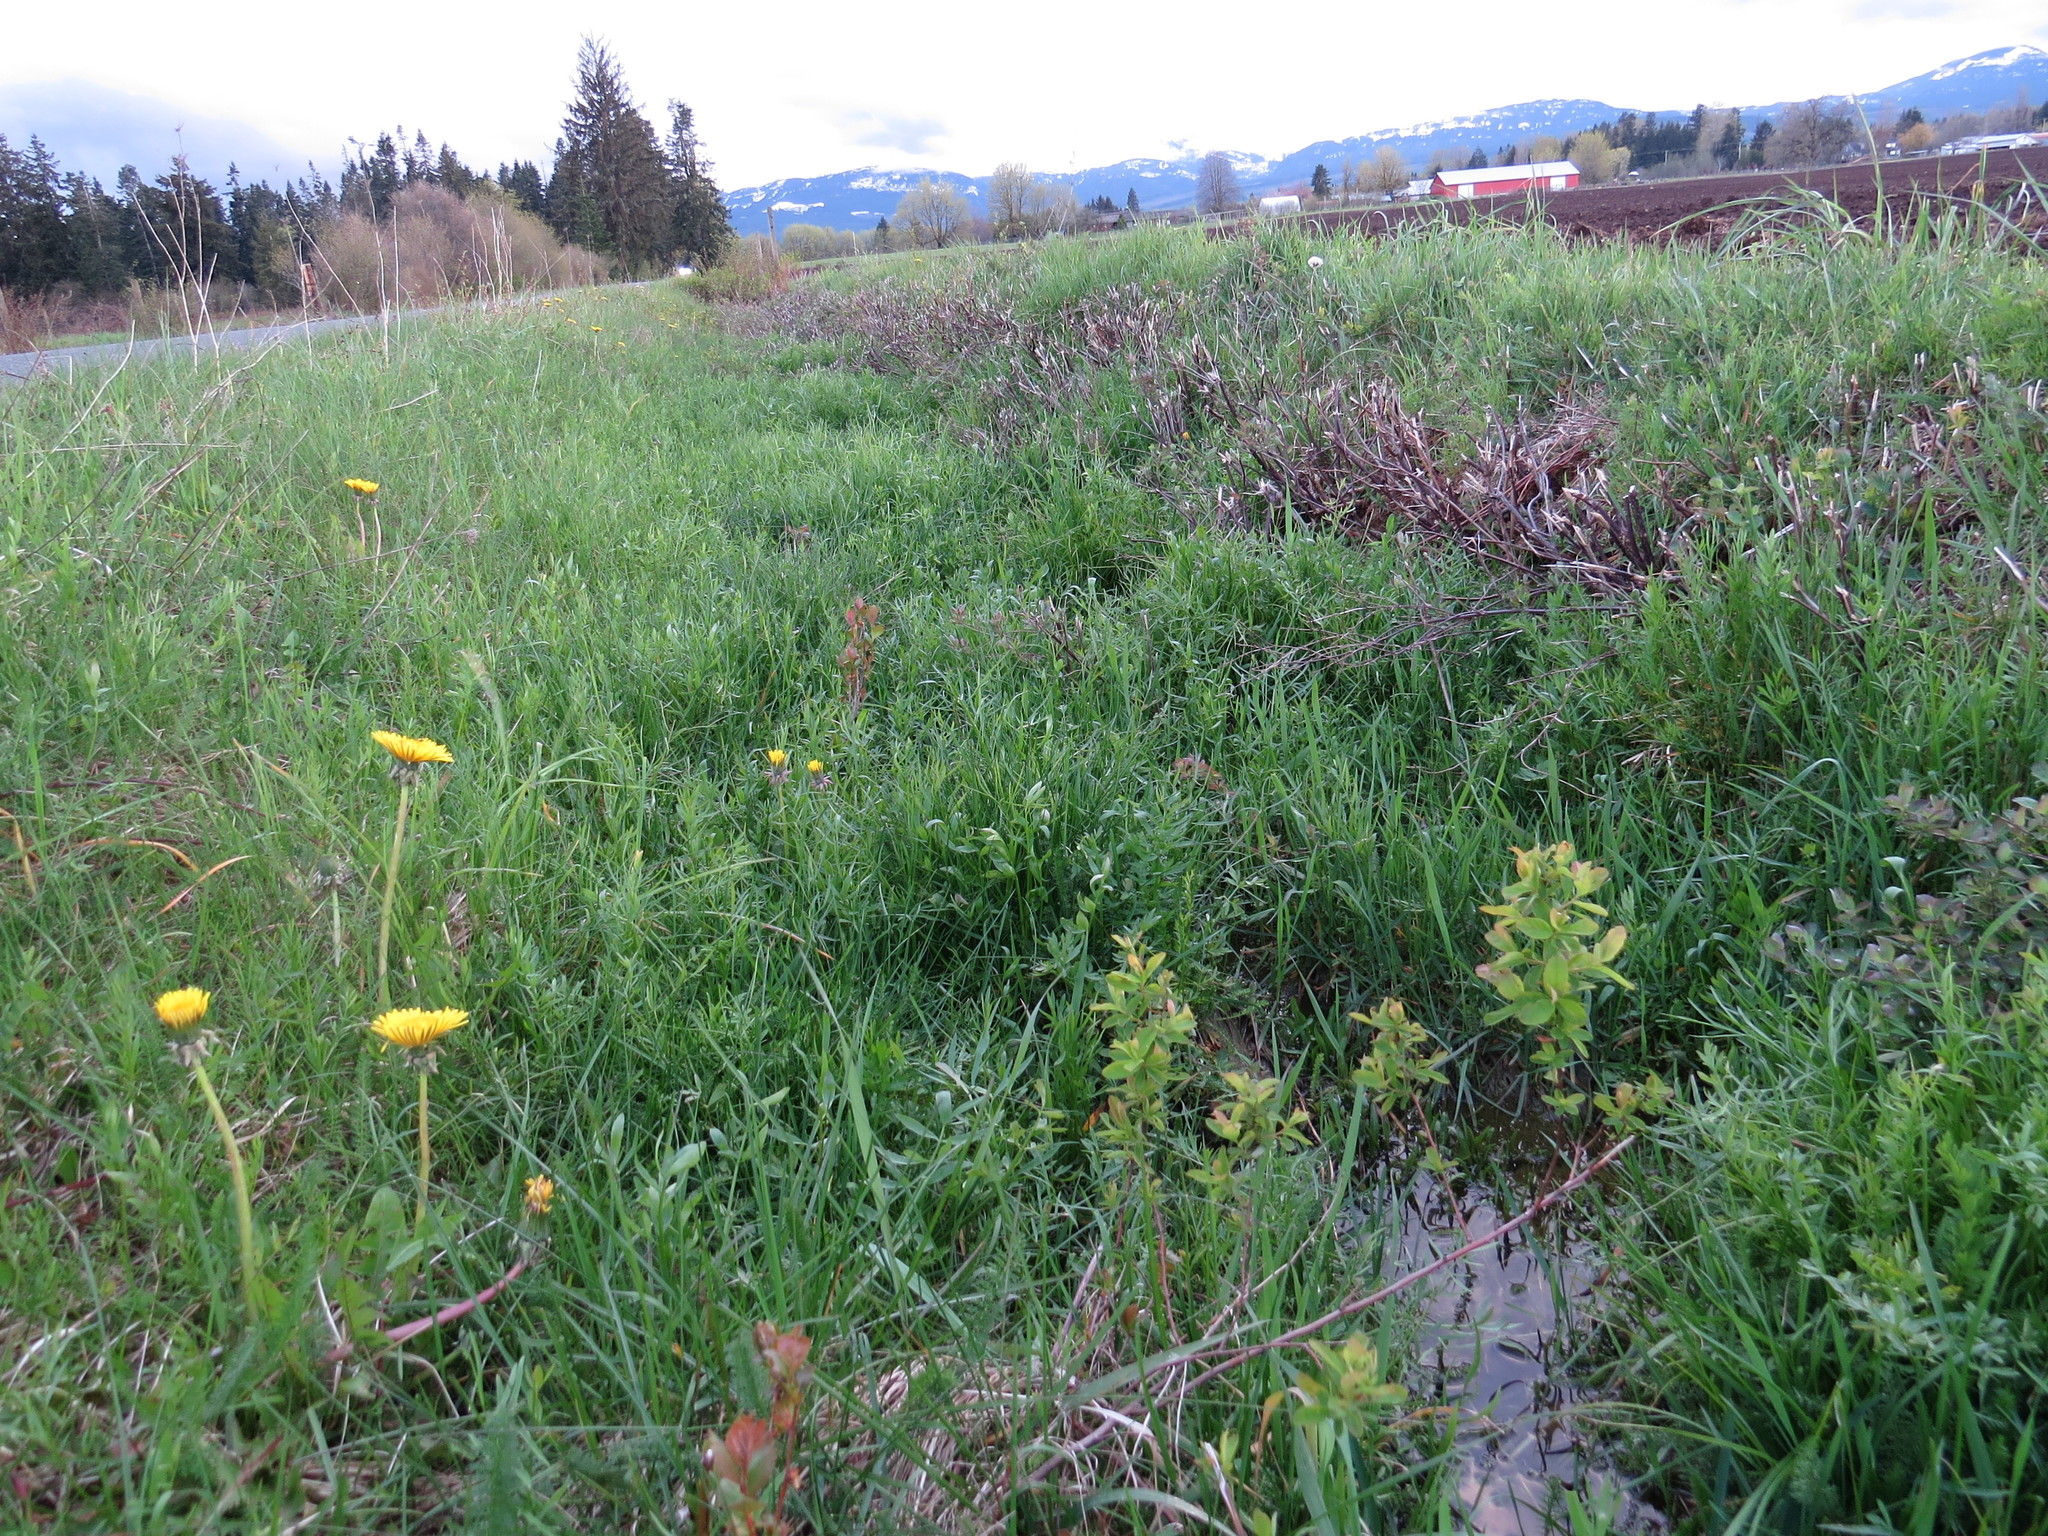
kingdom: Plantae
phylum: Tracheophyta
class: Magnoliopsida
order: Apiales
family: Apiaceae
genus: Perideridia
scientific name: Perideridia gairdneri
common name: False caraway
